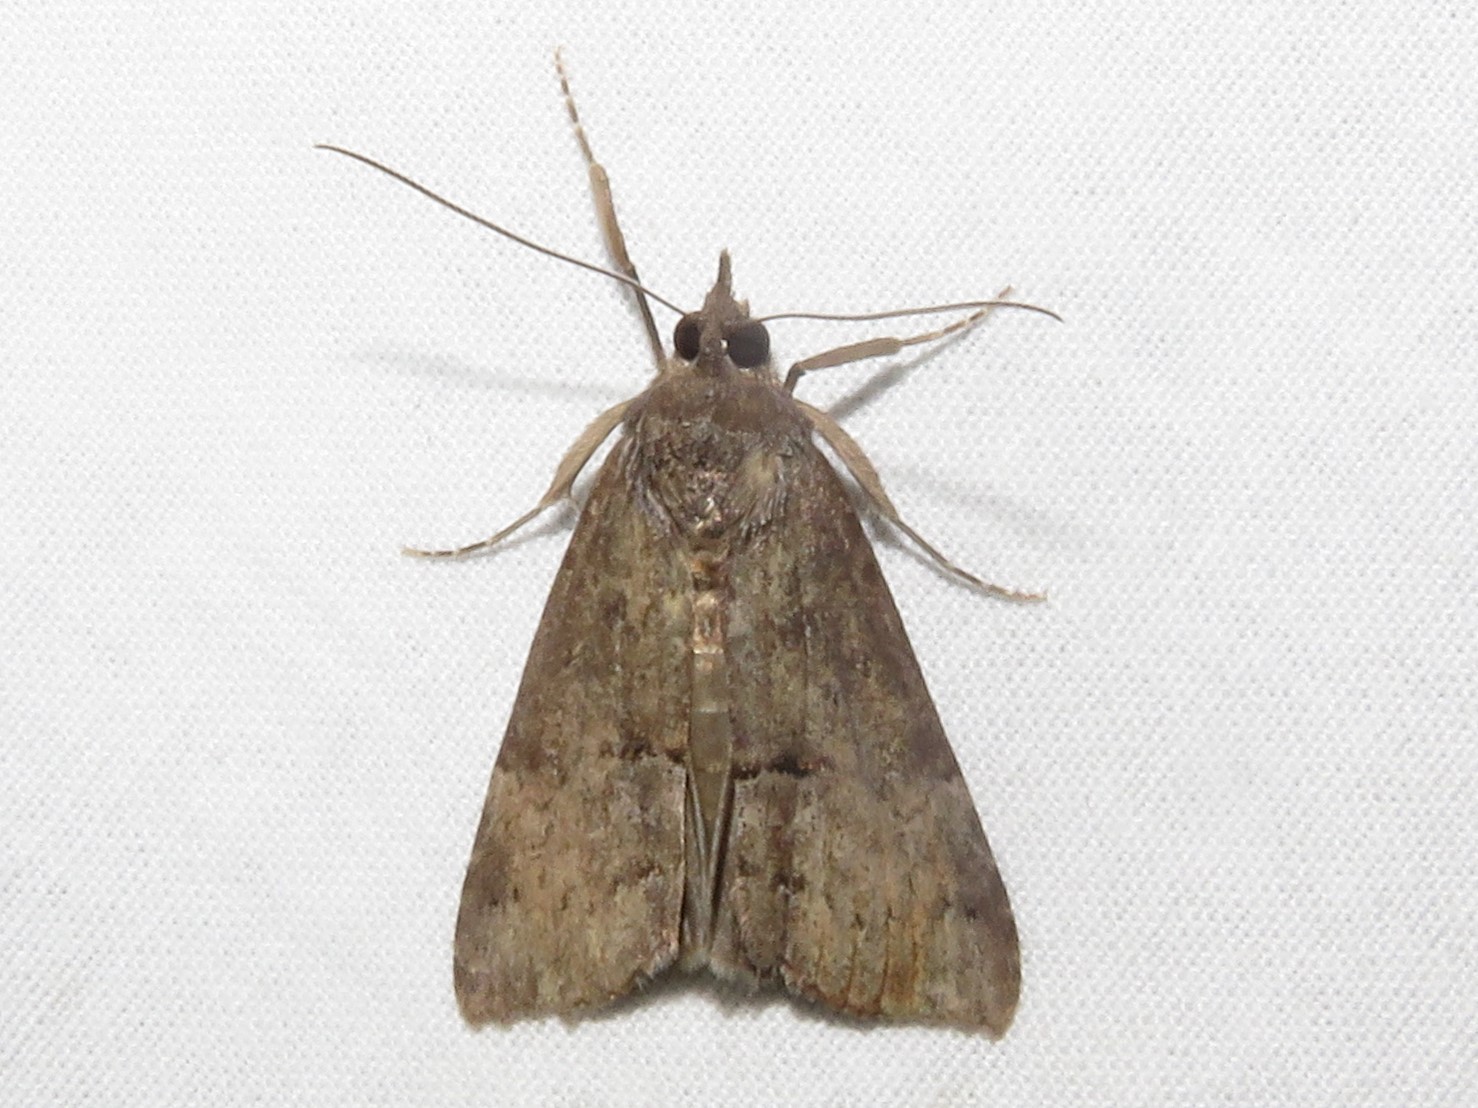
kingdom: Animalia
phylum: Arthropoda
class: Insecta
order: Lepidoptera
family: Erebidae
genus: Hypena
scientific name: Hypena scabra
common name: Green cloverworm
